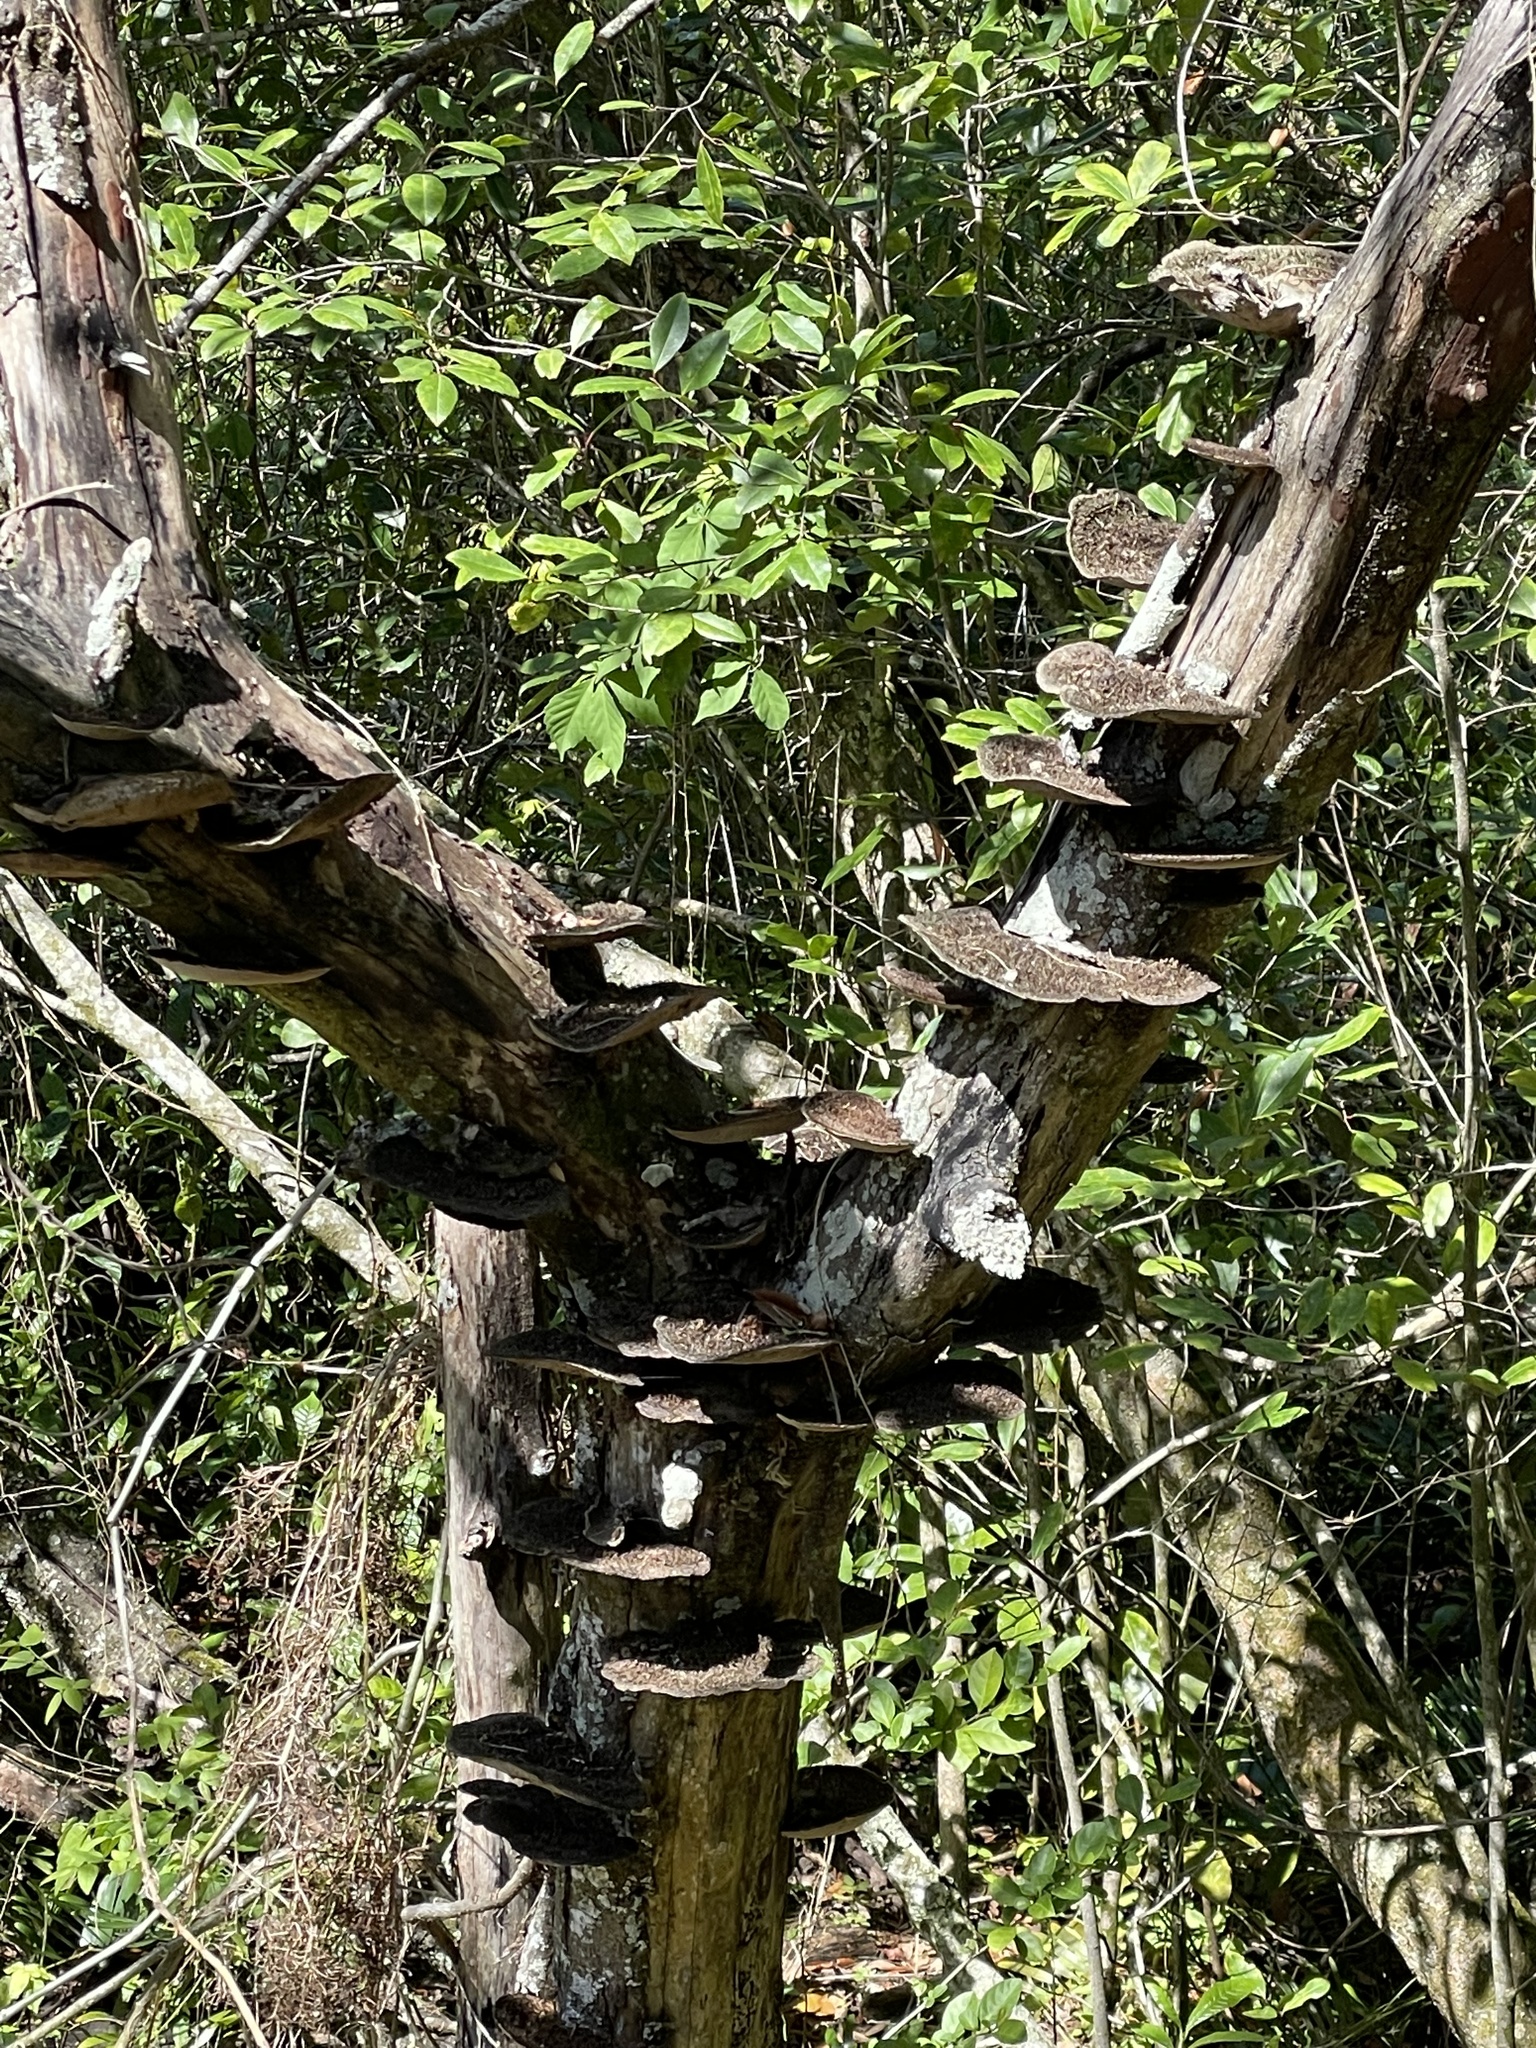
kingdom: Fungi
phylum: Basidiomycota
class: Agaricomycetes
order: Polyporales
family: Cerrenaceae
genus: Cerrena
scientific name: Cerrena hydnoides
